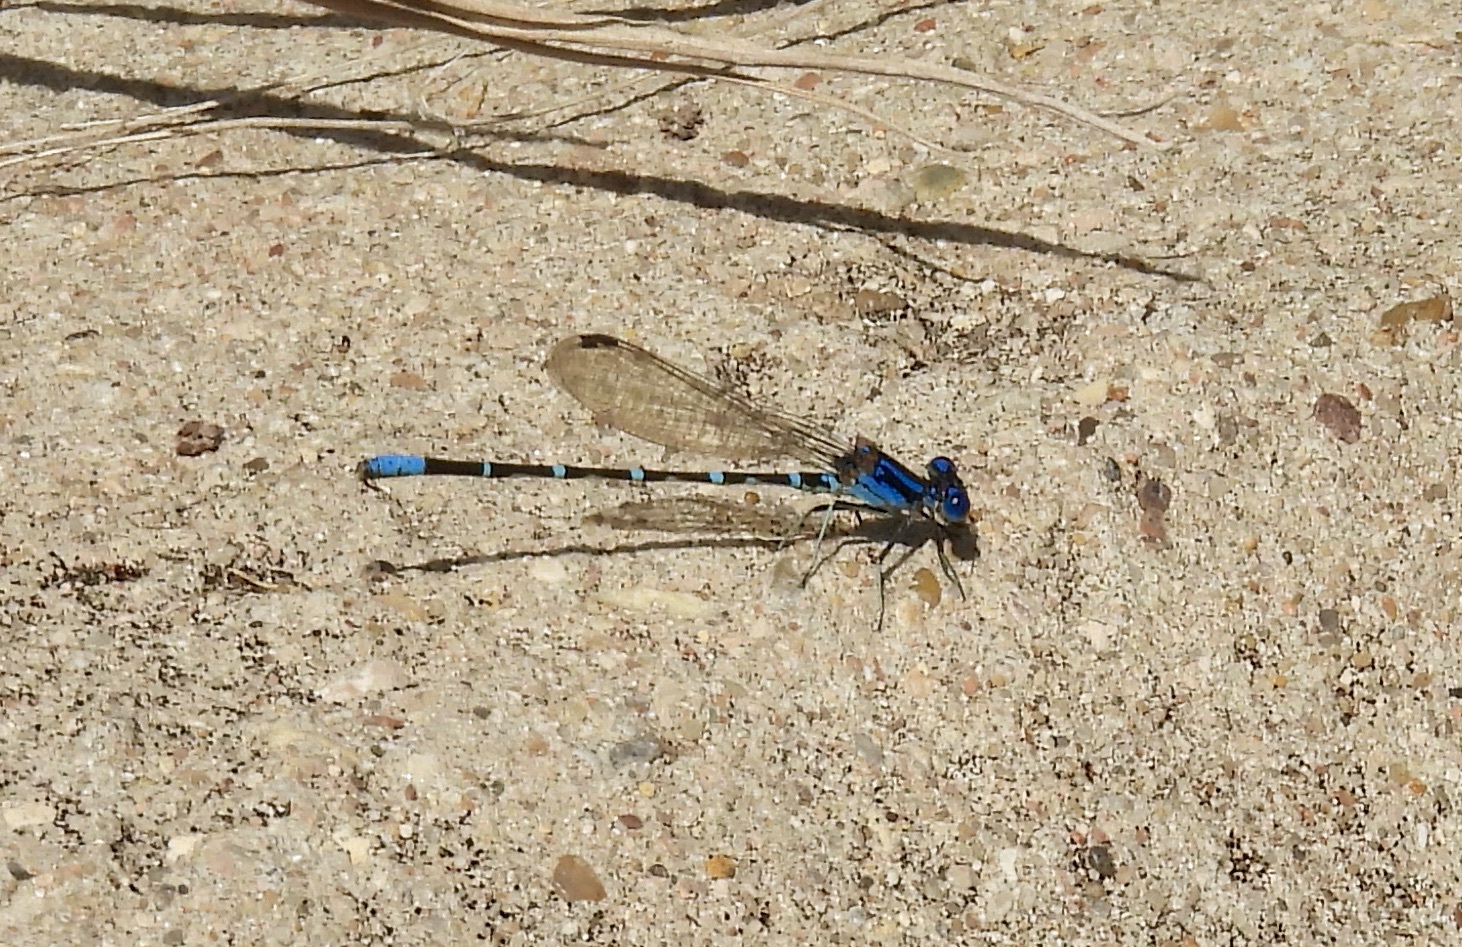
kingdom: Animalia
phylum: Arthropoda
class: Insecta
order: Odonata
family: Coenagrionidae
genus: Argia
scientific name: Argia sedula
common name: Blue-ringed dancer
